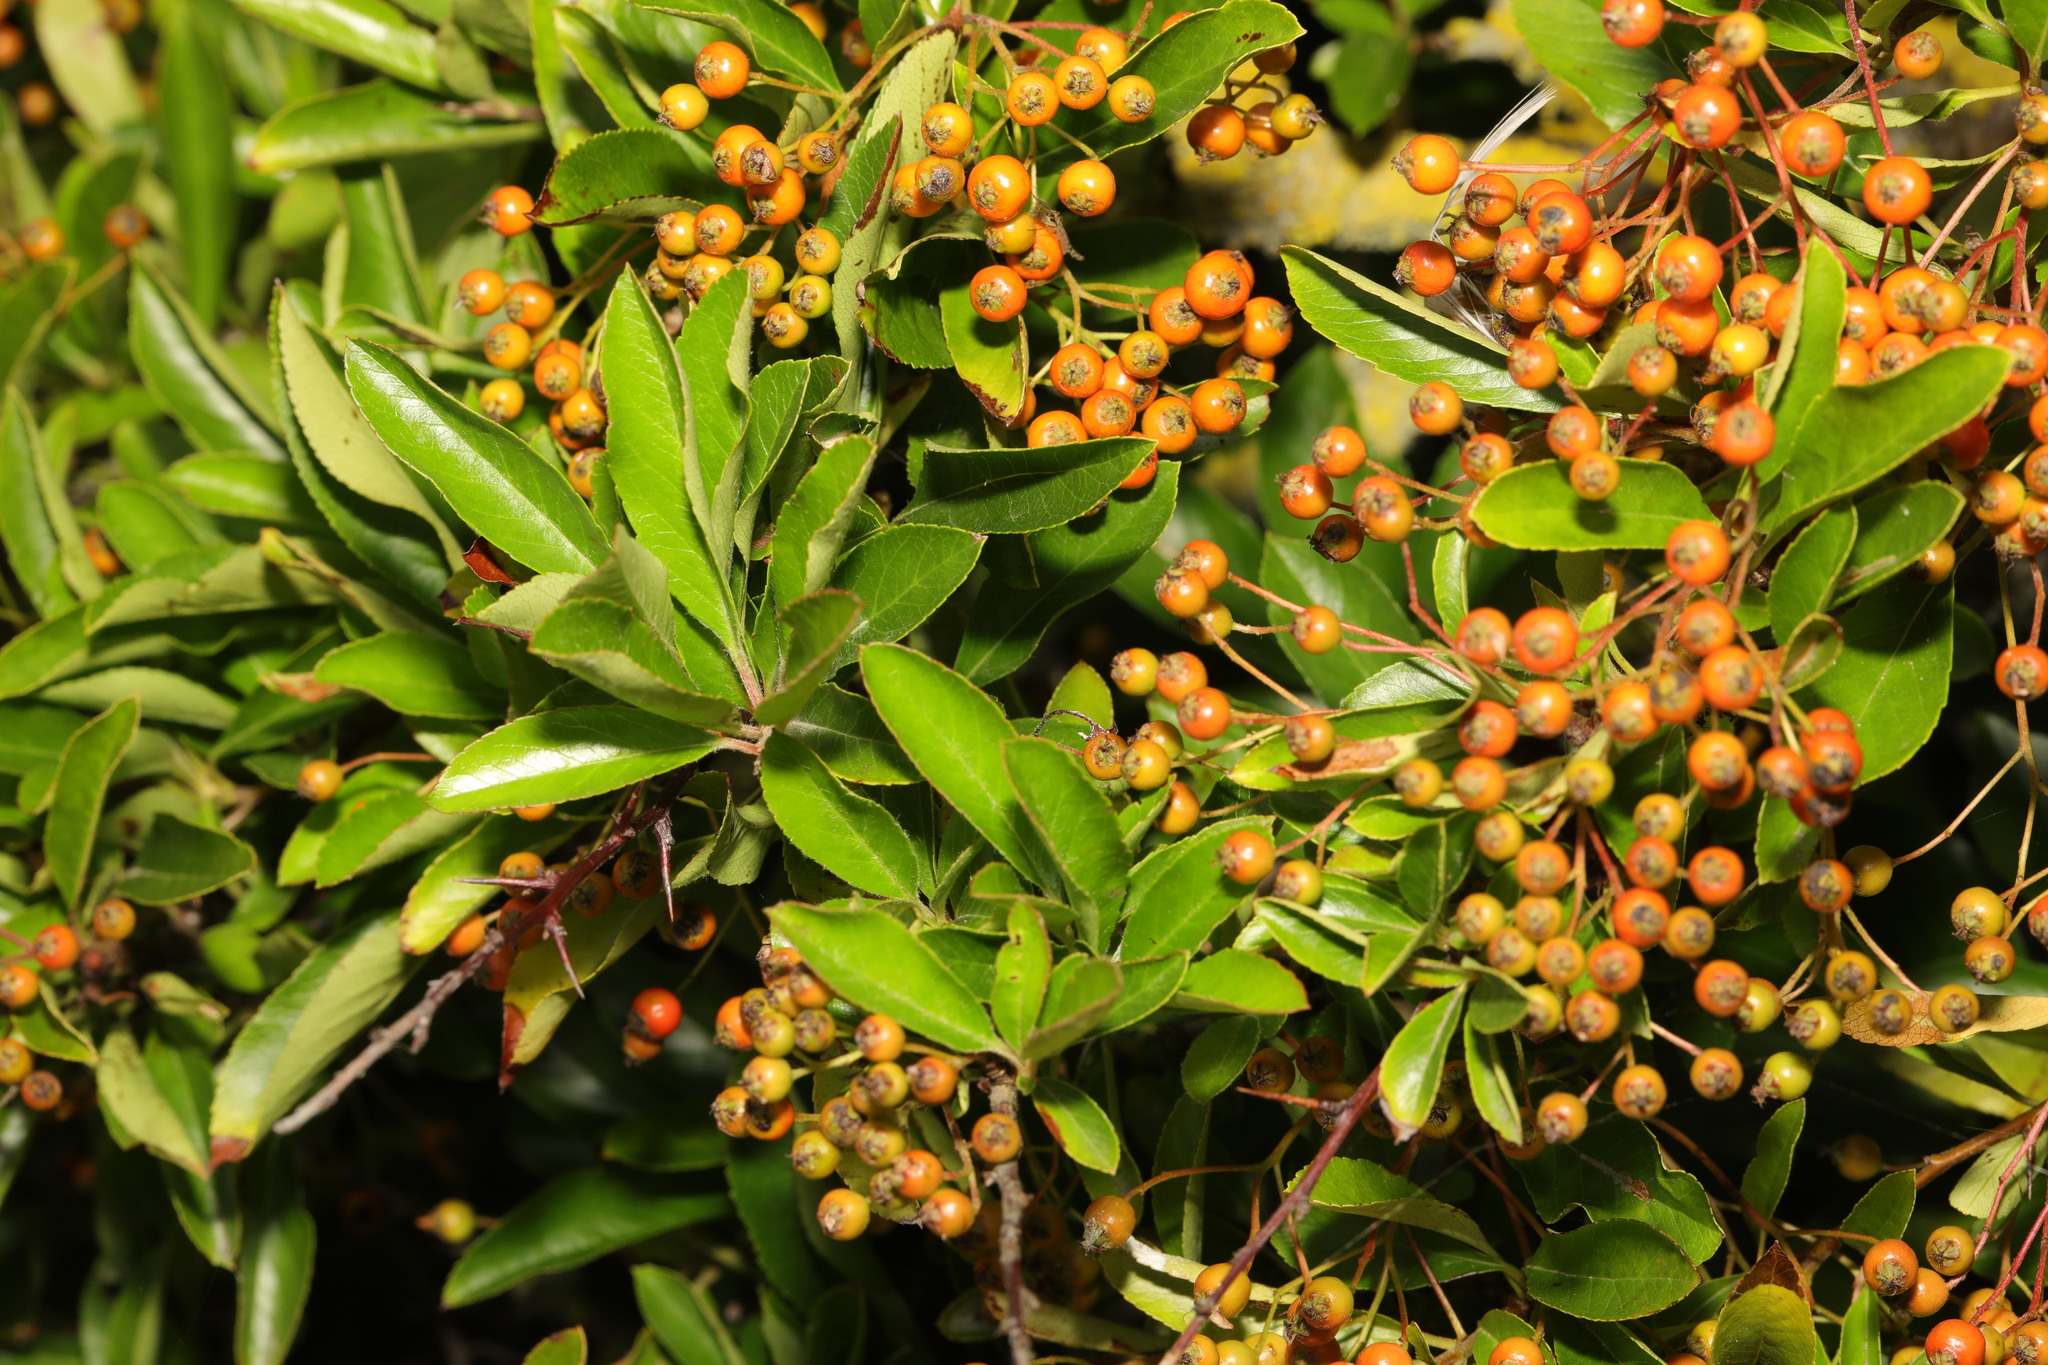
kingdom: Plantae
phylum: Tracheophyta
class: Magnoliopsida
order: Rosales
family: Rosaceae
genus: Pyracantha
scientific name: Pyracantha coccinea
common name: Firethorn
